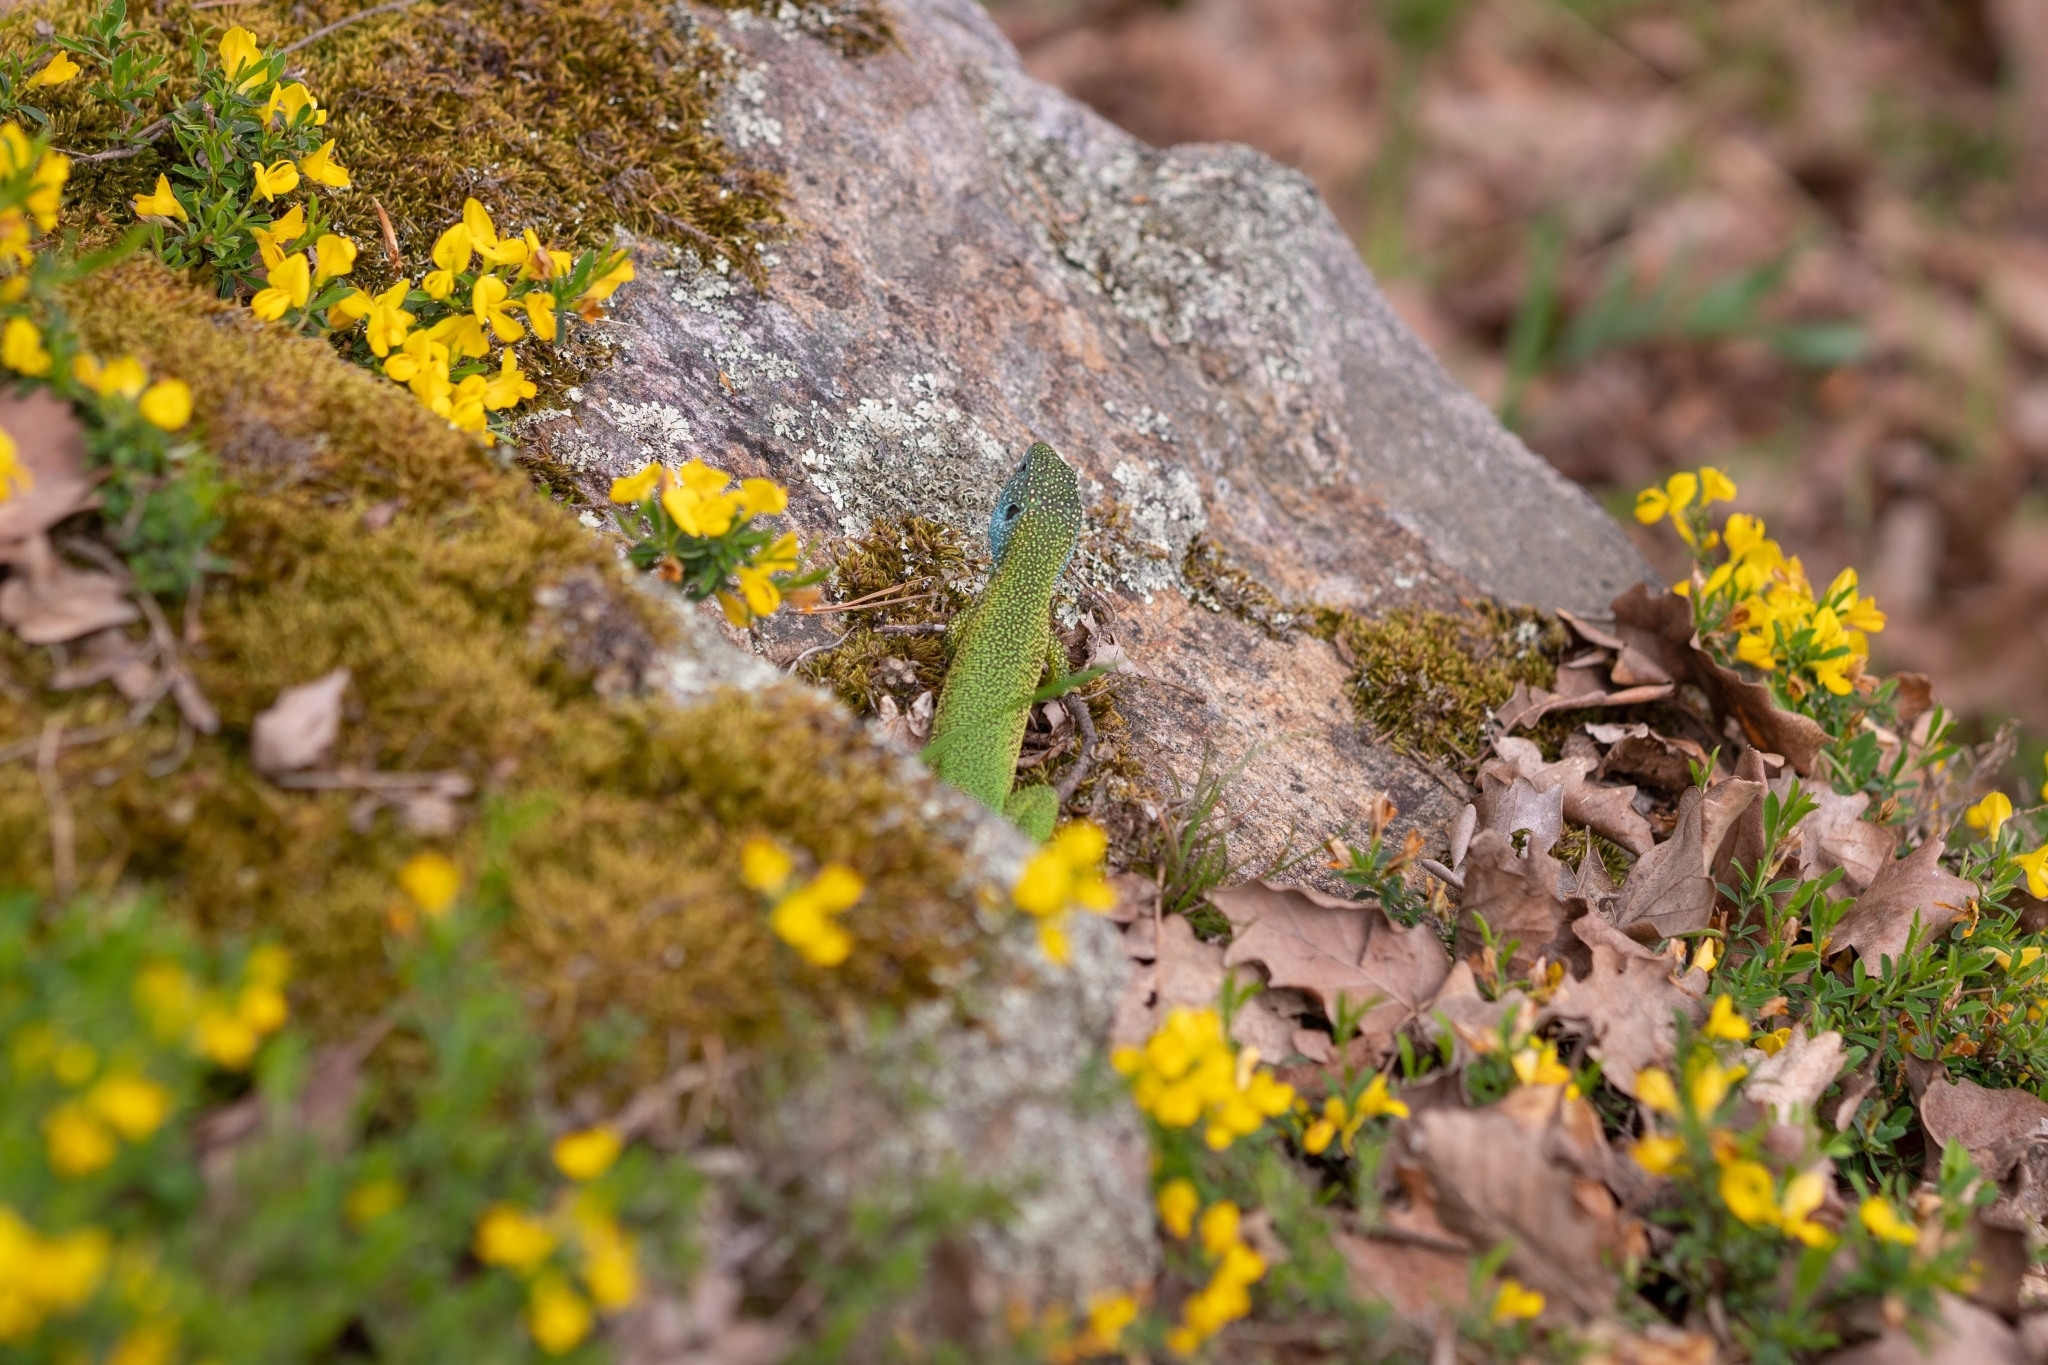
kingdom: Animalia
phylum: Chordata
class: Squamata
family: Lacertidae
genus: Lacerta
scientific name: Lacerta viridis
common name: European green lizard
